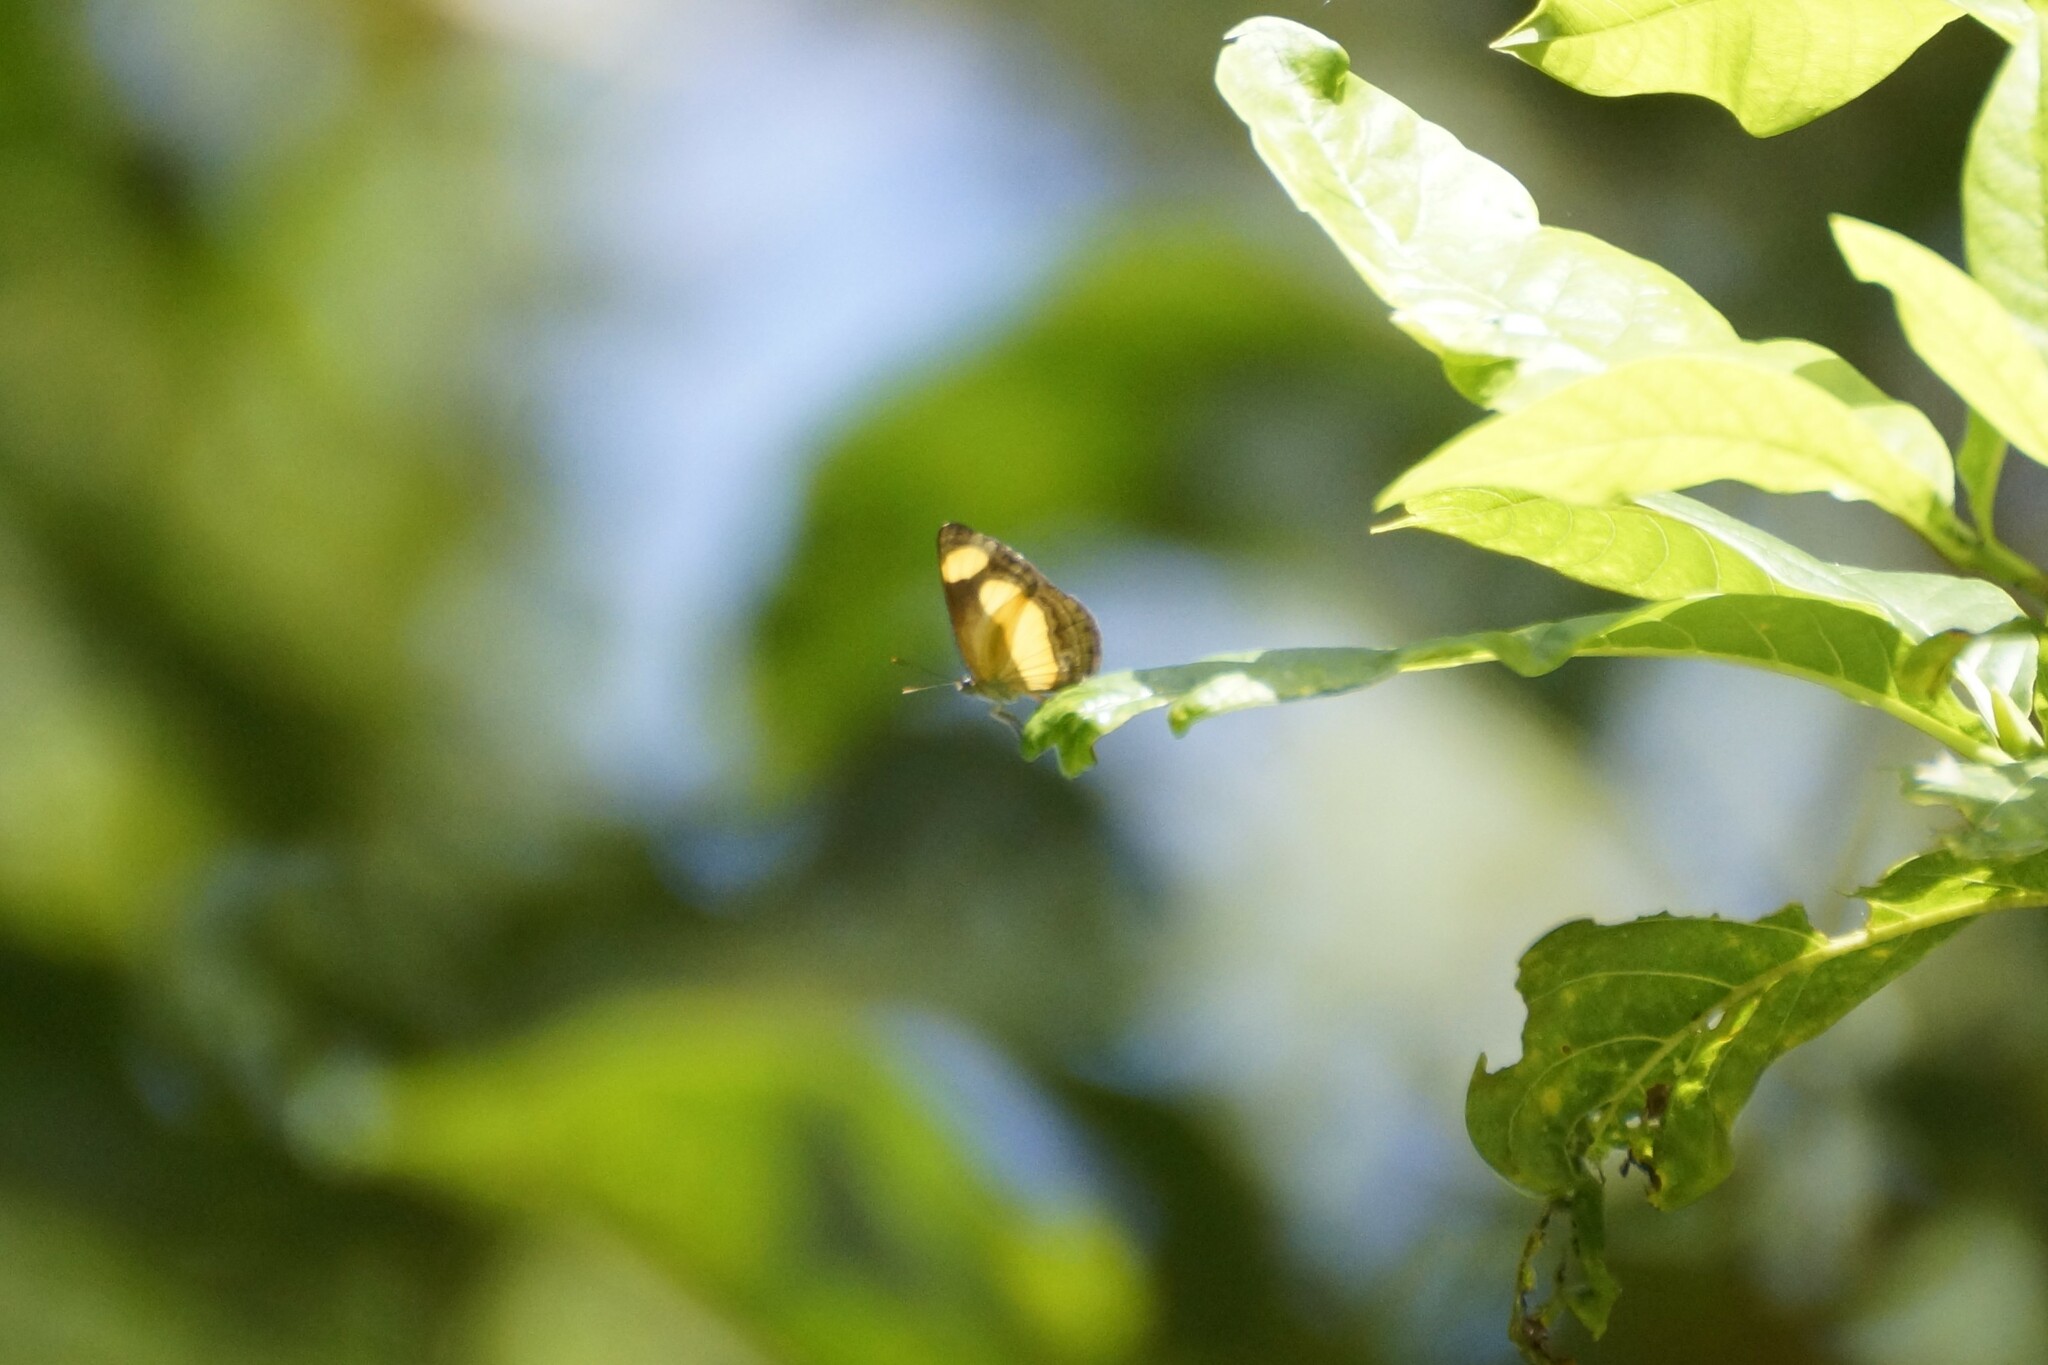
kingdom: Animalia
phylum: Arthropoda
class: Insecta
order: Lepidoptera
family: Nymphalidae
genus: Pantoporia
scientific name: Pantoporia consimilis
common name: Orange plane
